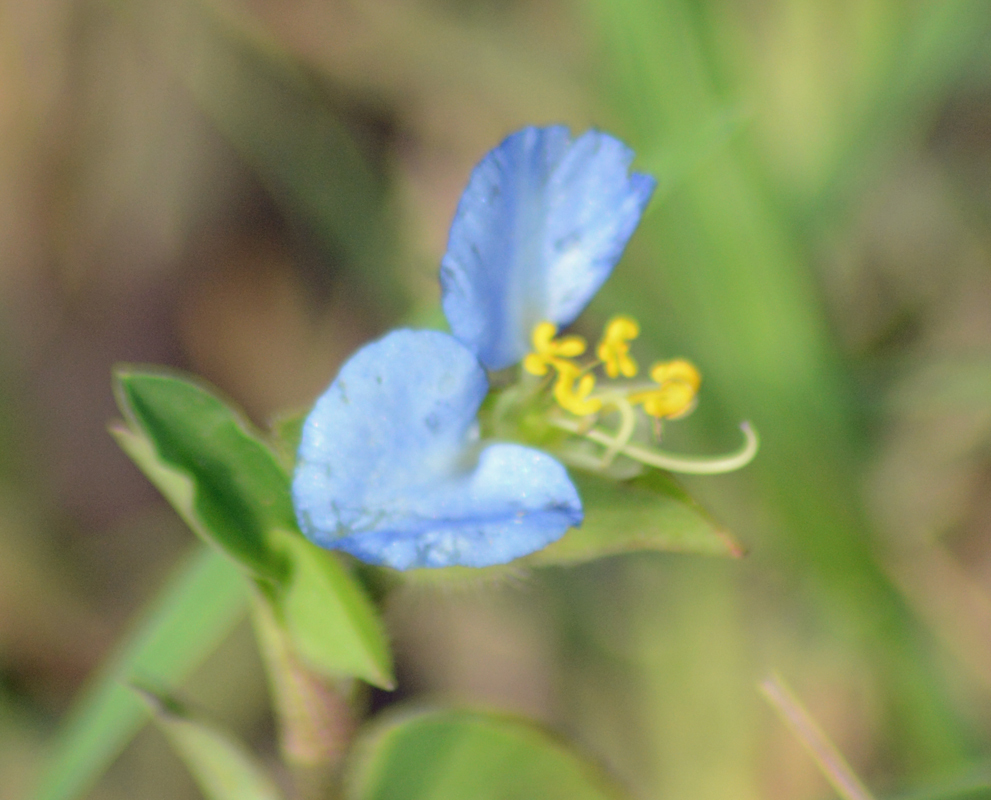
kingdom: Plantae
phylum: Tracheophyta
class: Liliopsida
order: Commelinales
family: Commelinaceae
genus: Commelina
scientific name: Commelina erecta
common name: Blousel blommetjie
